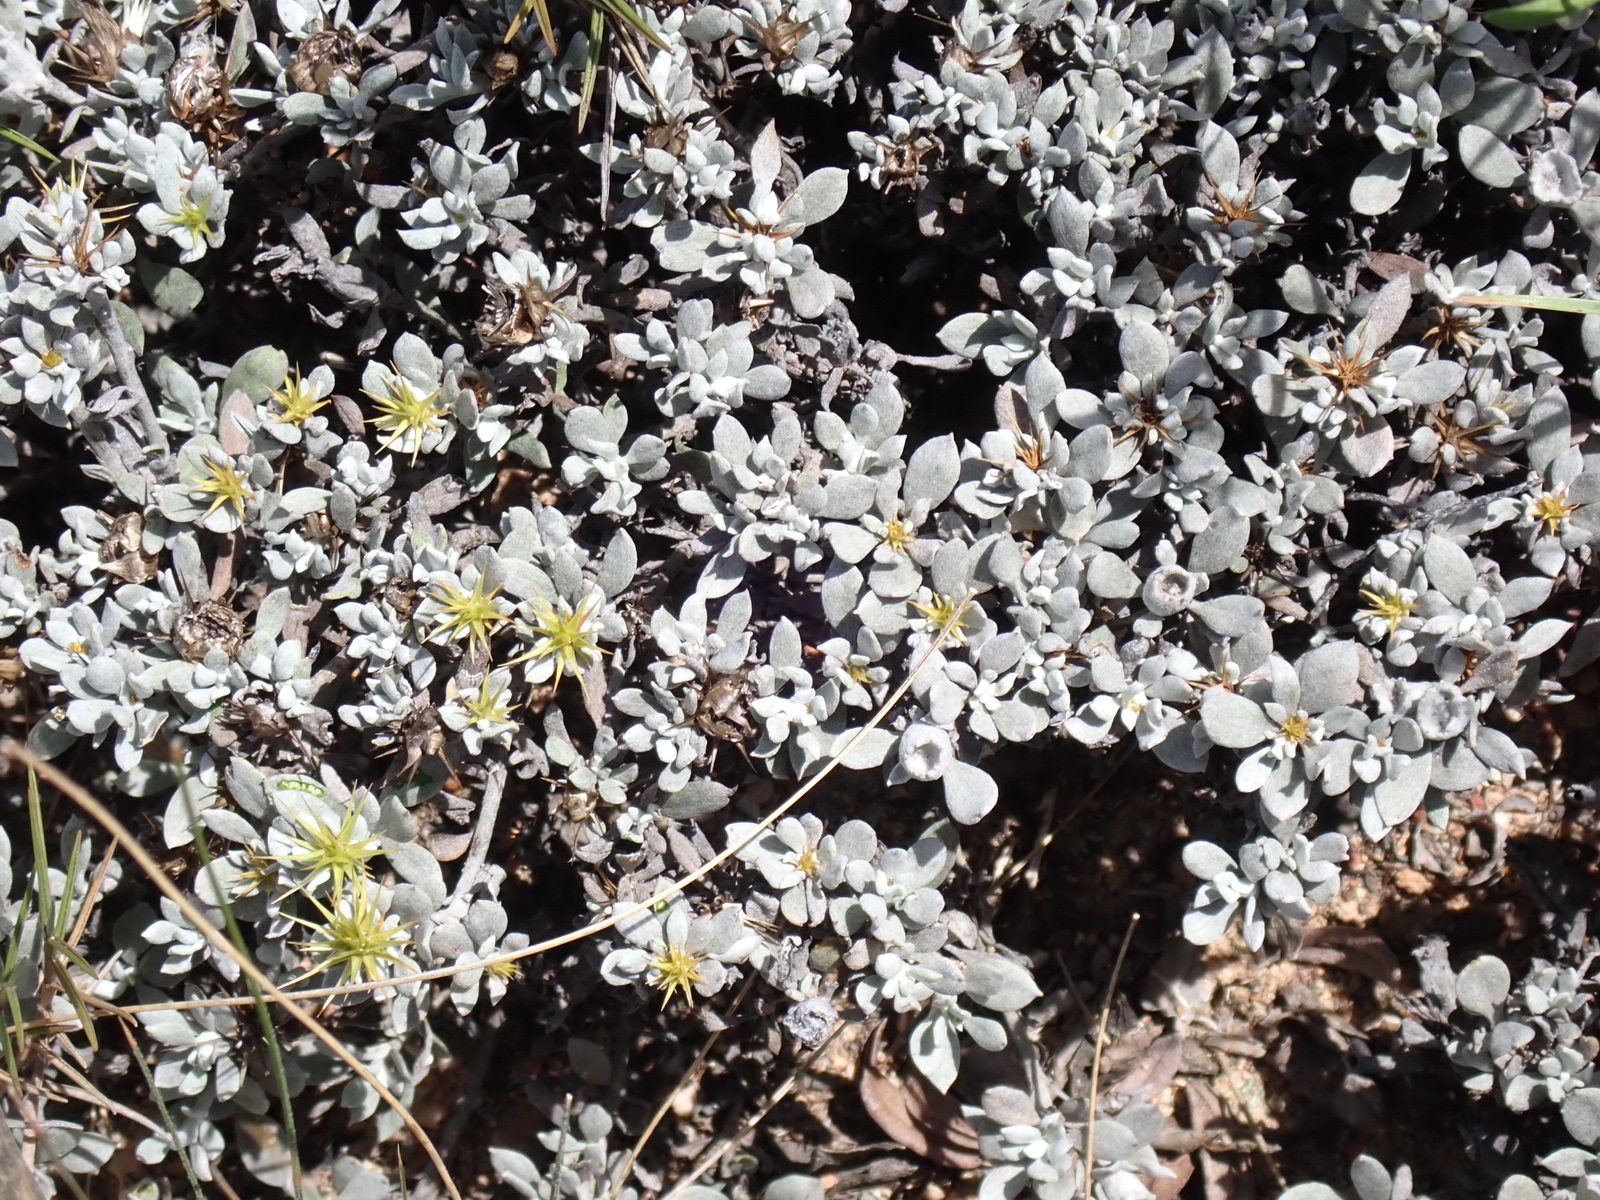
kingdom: Plantae
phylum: Tracheophyta
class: Magnoliopsida
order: Asterales
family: Asteraceae
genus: Macledium
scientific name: Macledium spinosum
